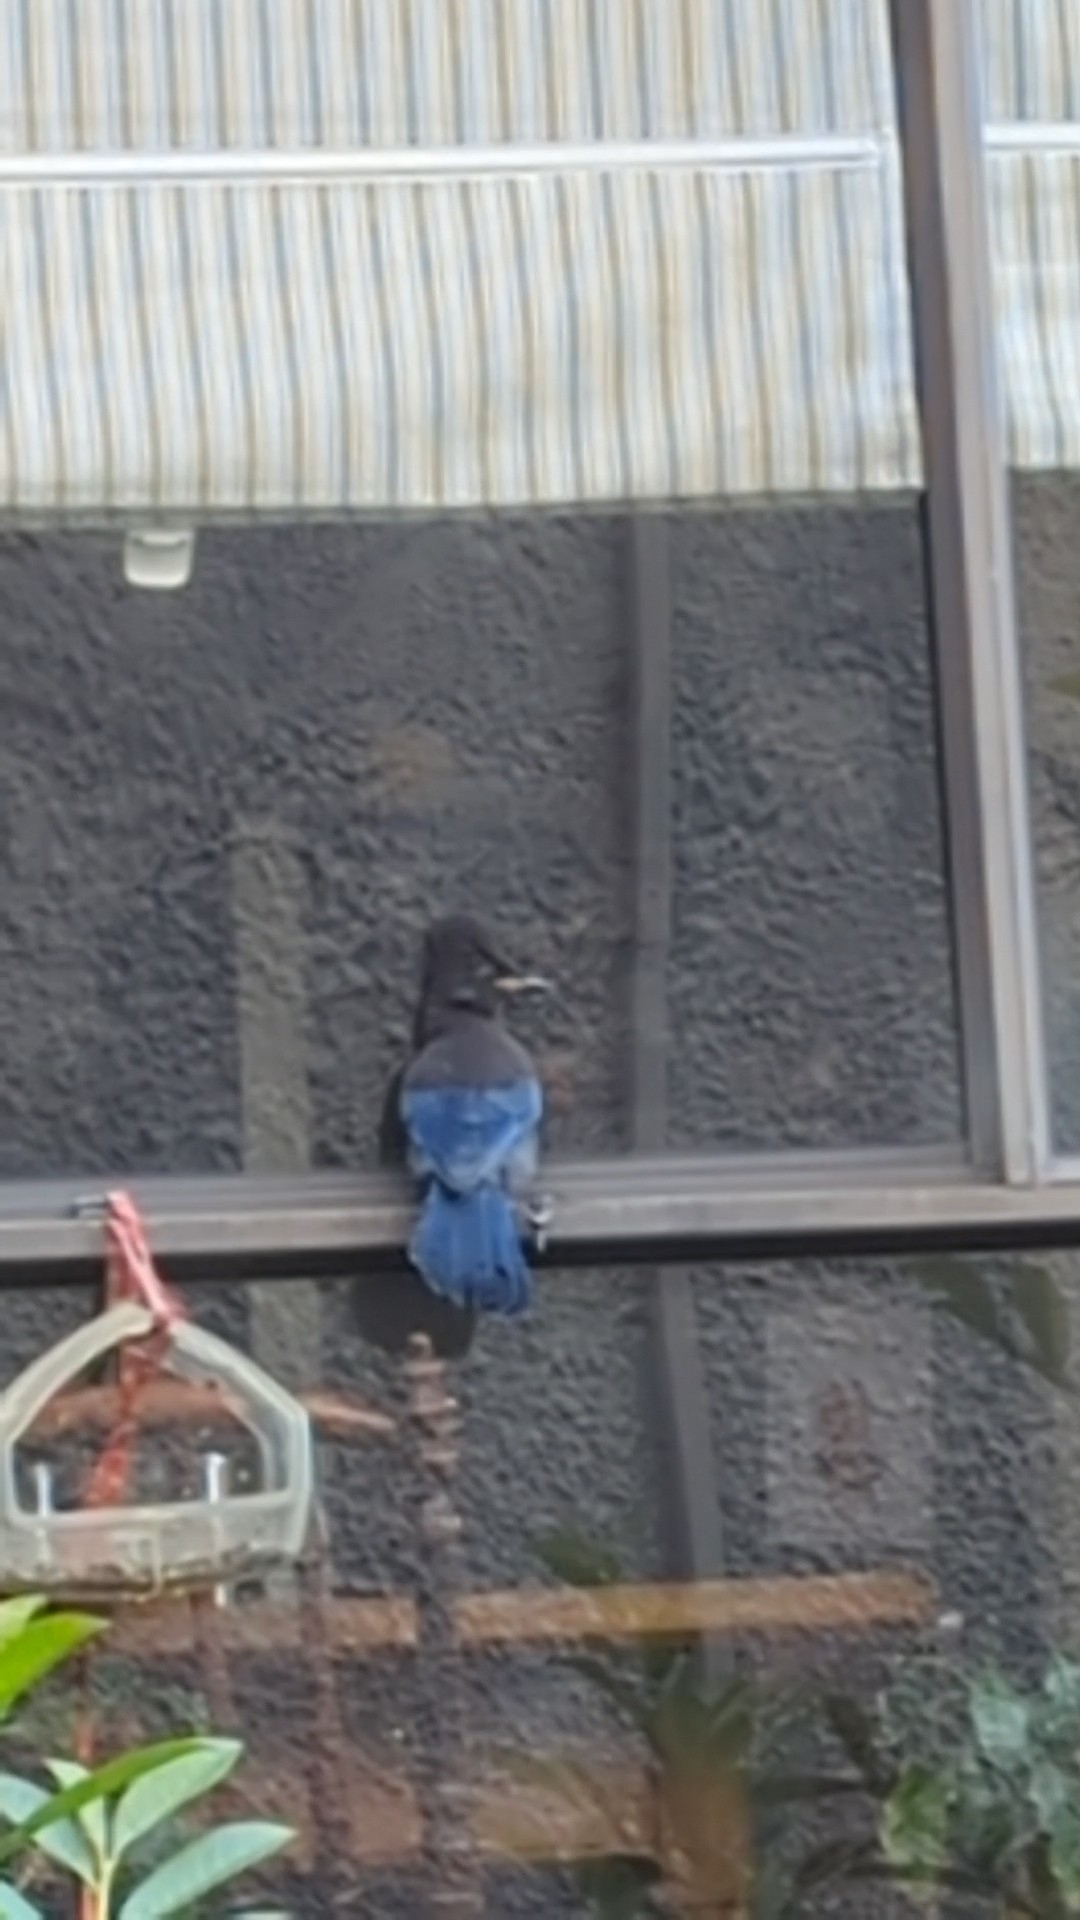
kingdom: Animalia
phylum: Chordata
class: Aves
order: Passeriformes
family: Corvidae
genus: Cyanocitta
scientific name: Cyanocitta stelleri
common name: Steller's jay
